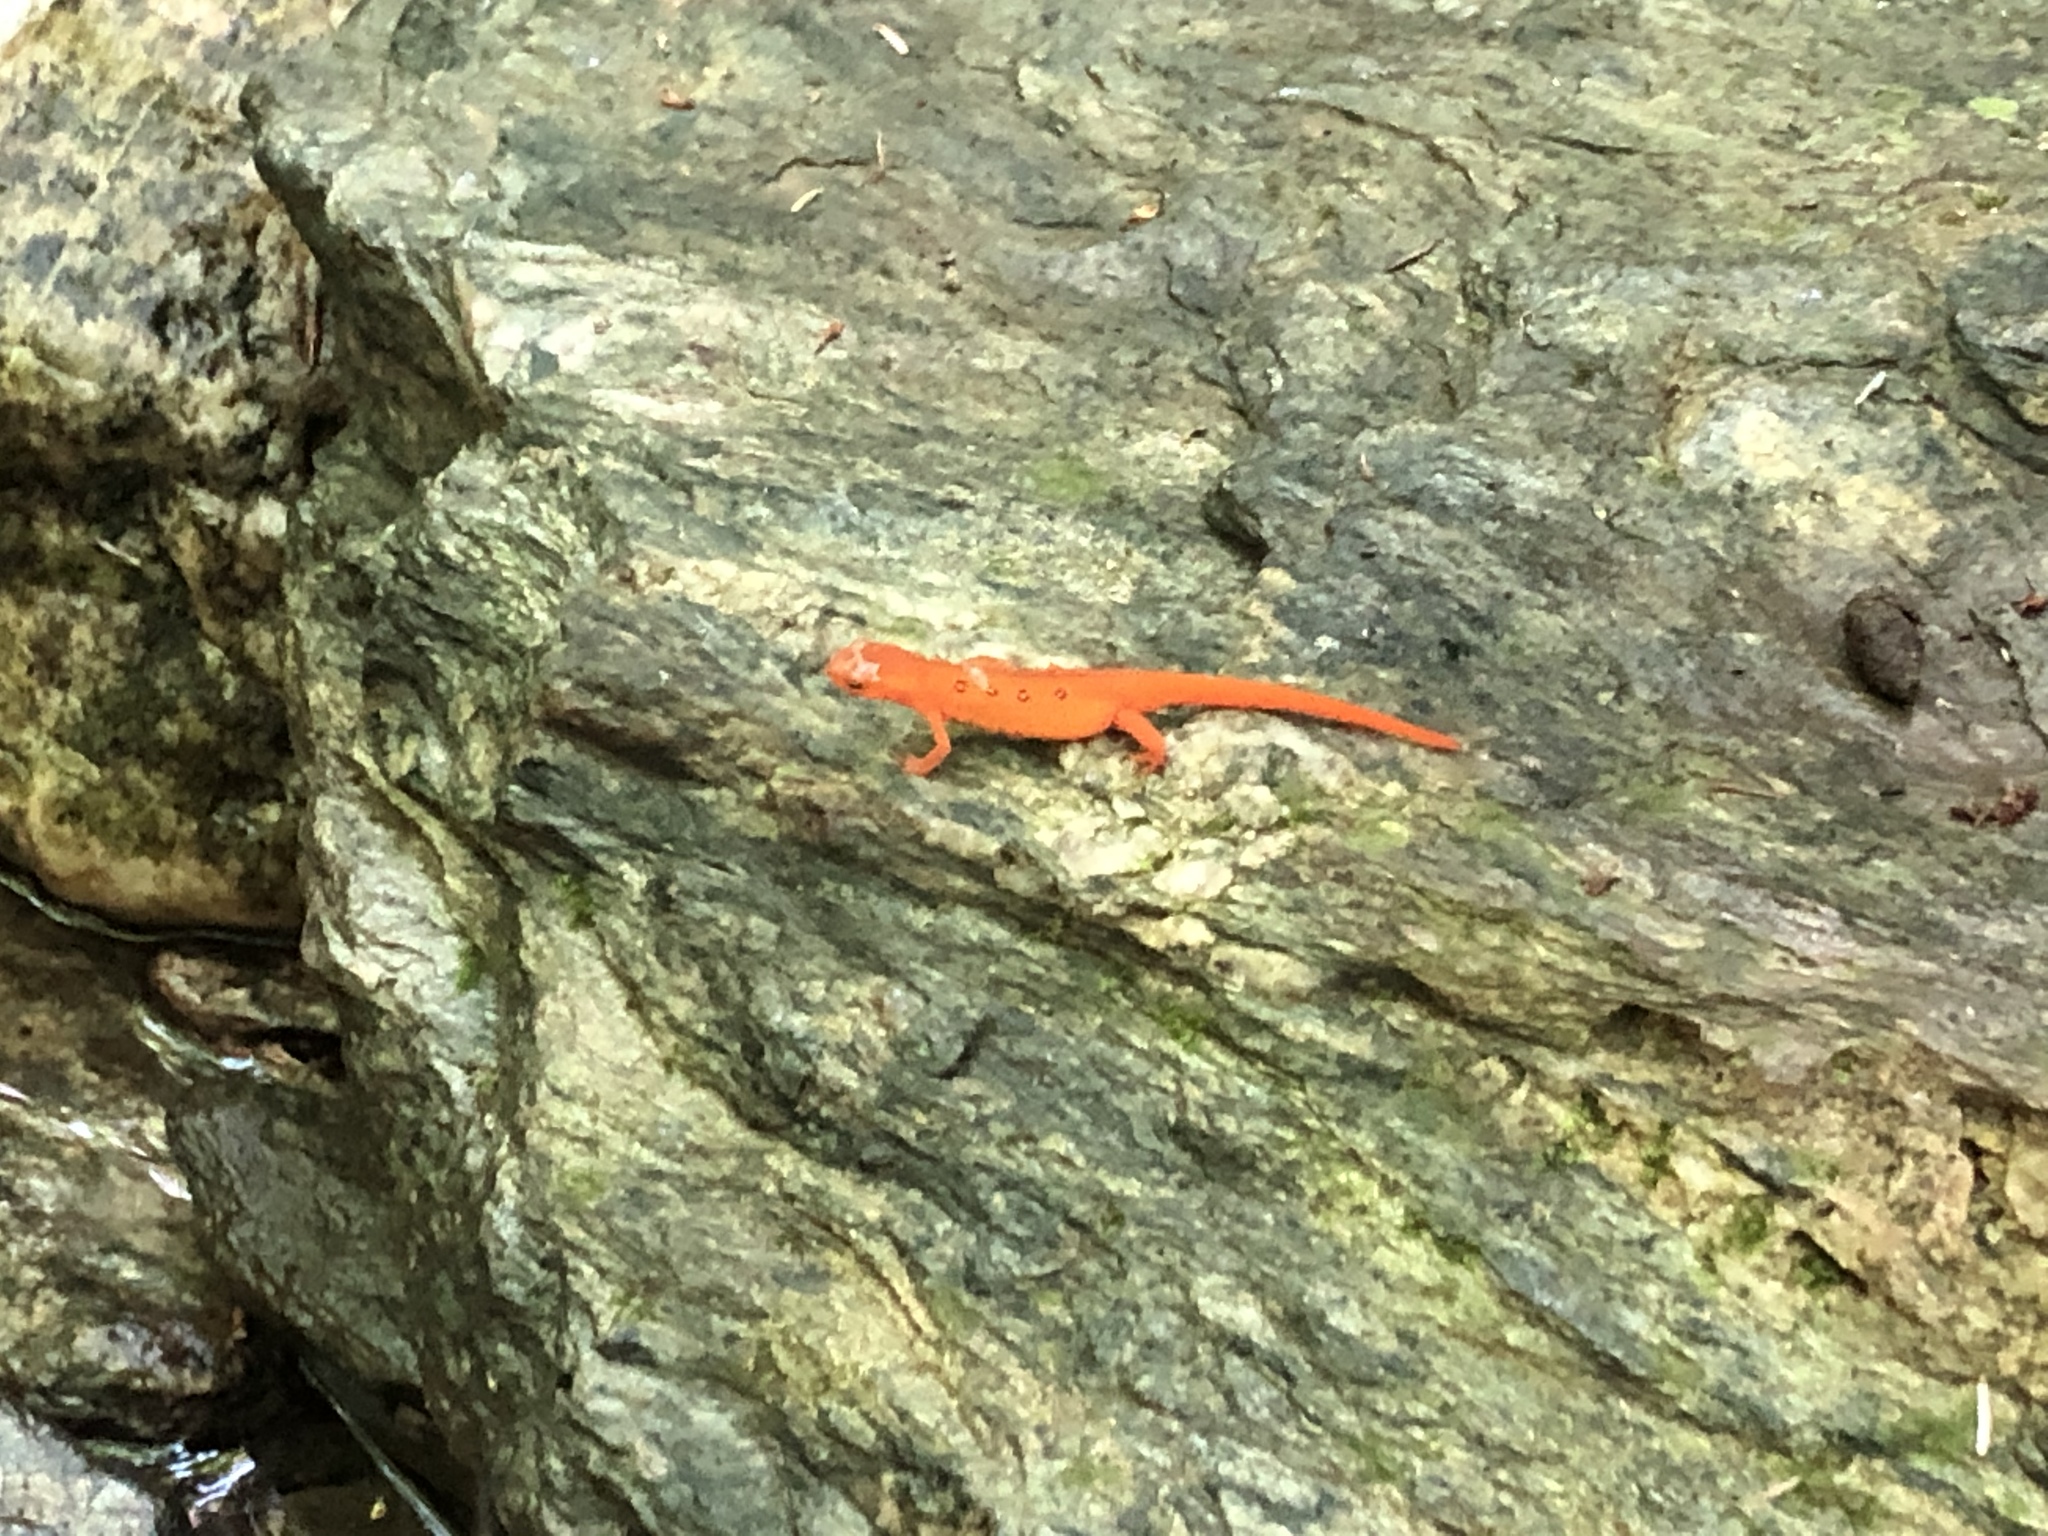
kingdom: Animalia
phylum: Chordata
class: Amphibia
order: Caudata
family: Salamandridae
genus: Notophthalmus
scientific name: Notophthalmus viridescens
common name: Eastern newt
